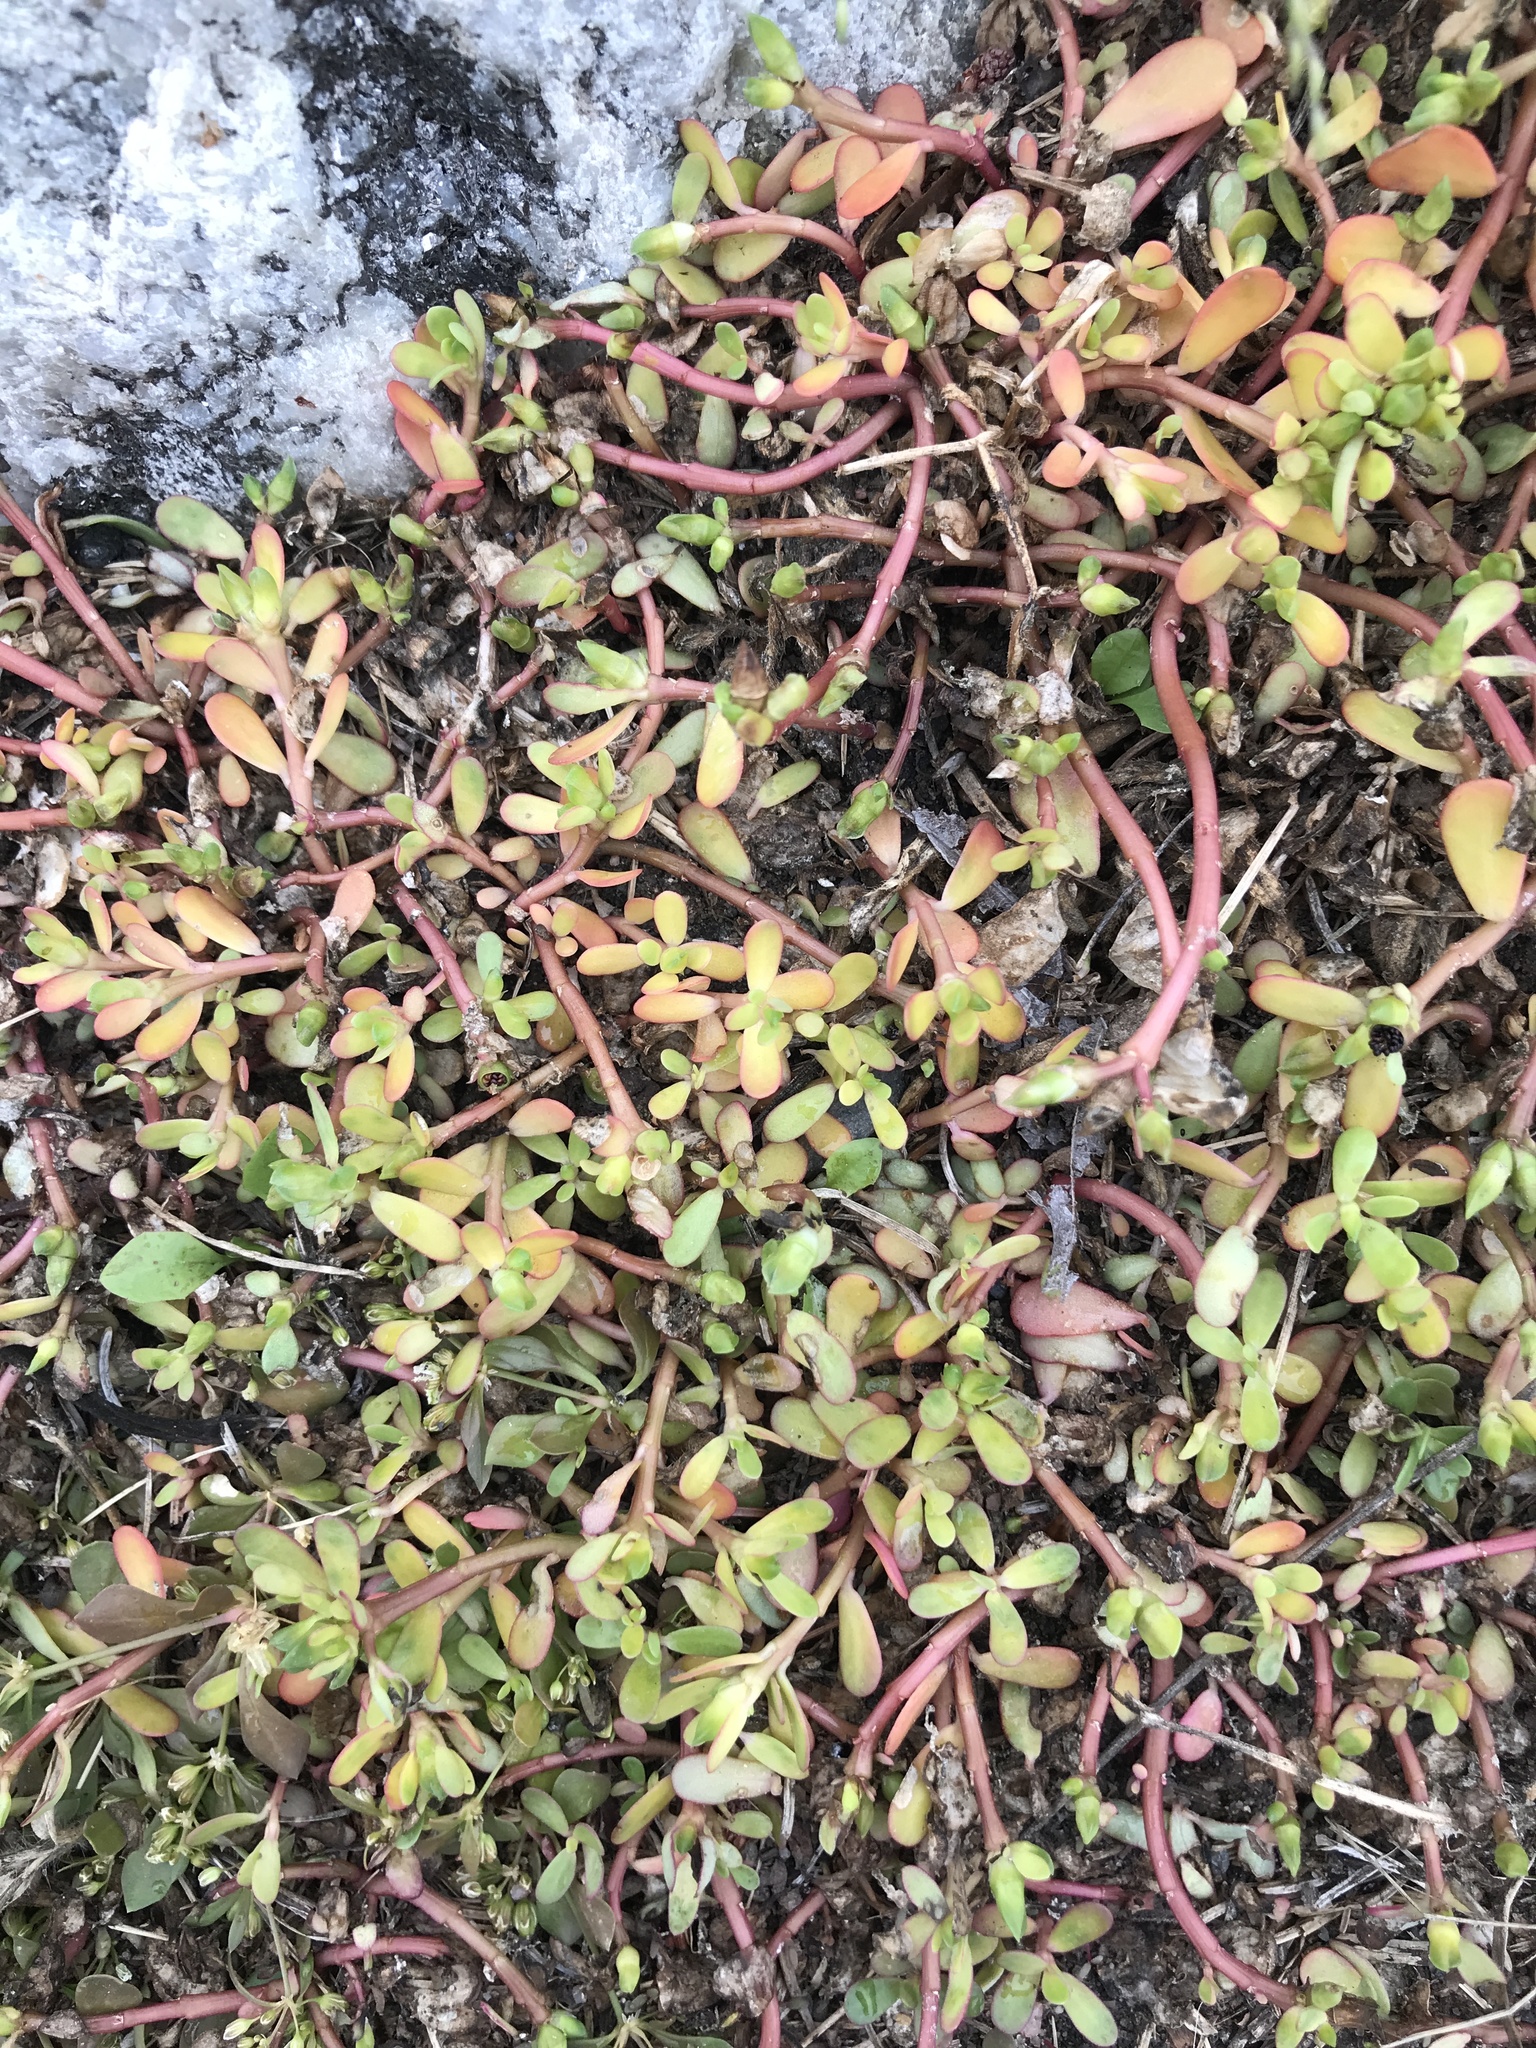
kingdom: Plantae
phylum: Tracheophyta
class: Magnoliopsida
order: Caryophyllales
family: Portulacaceae
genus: Portulaca
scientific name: Portulaca oleracea
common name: Common purslane
